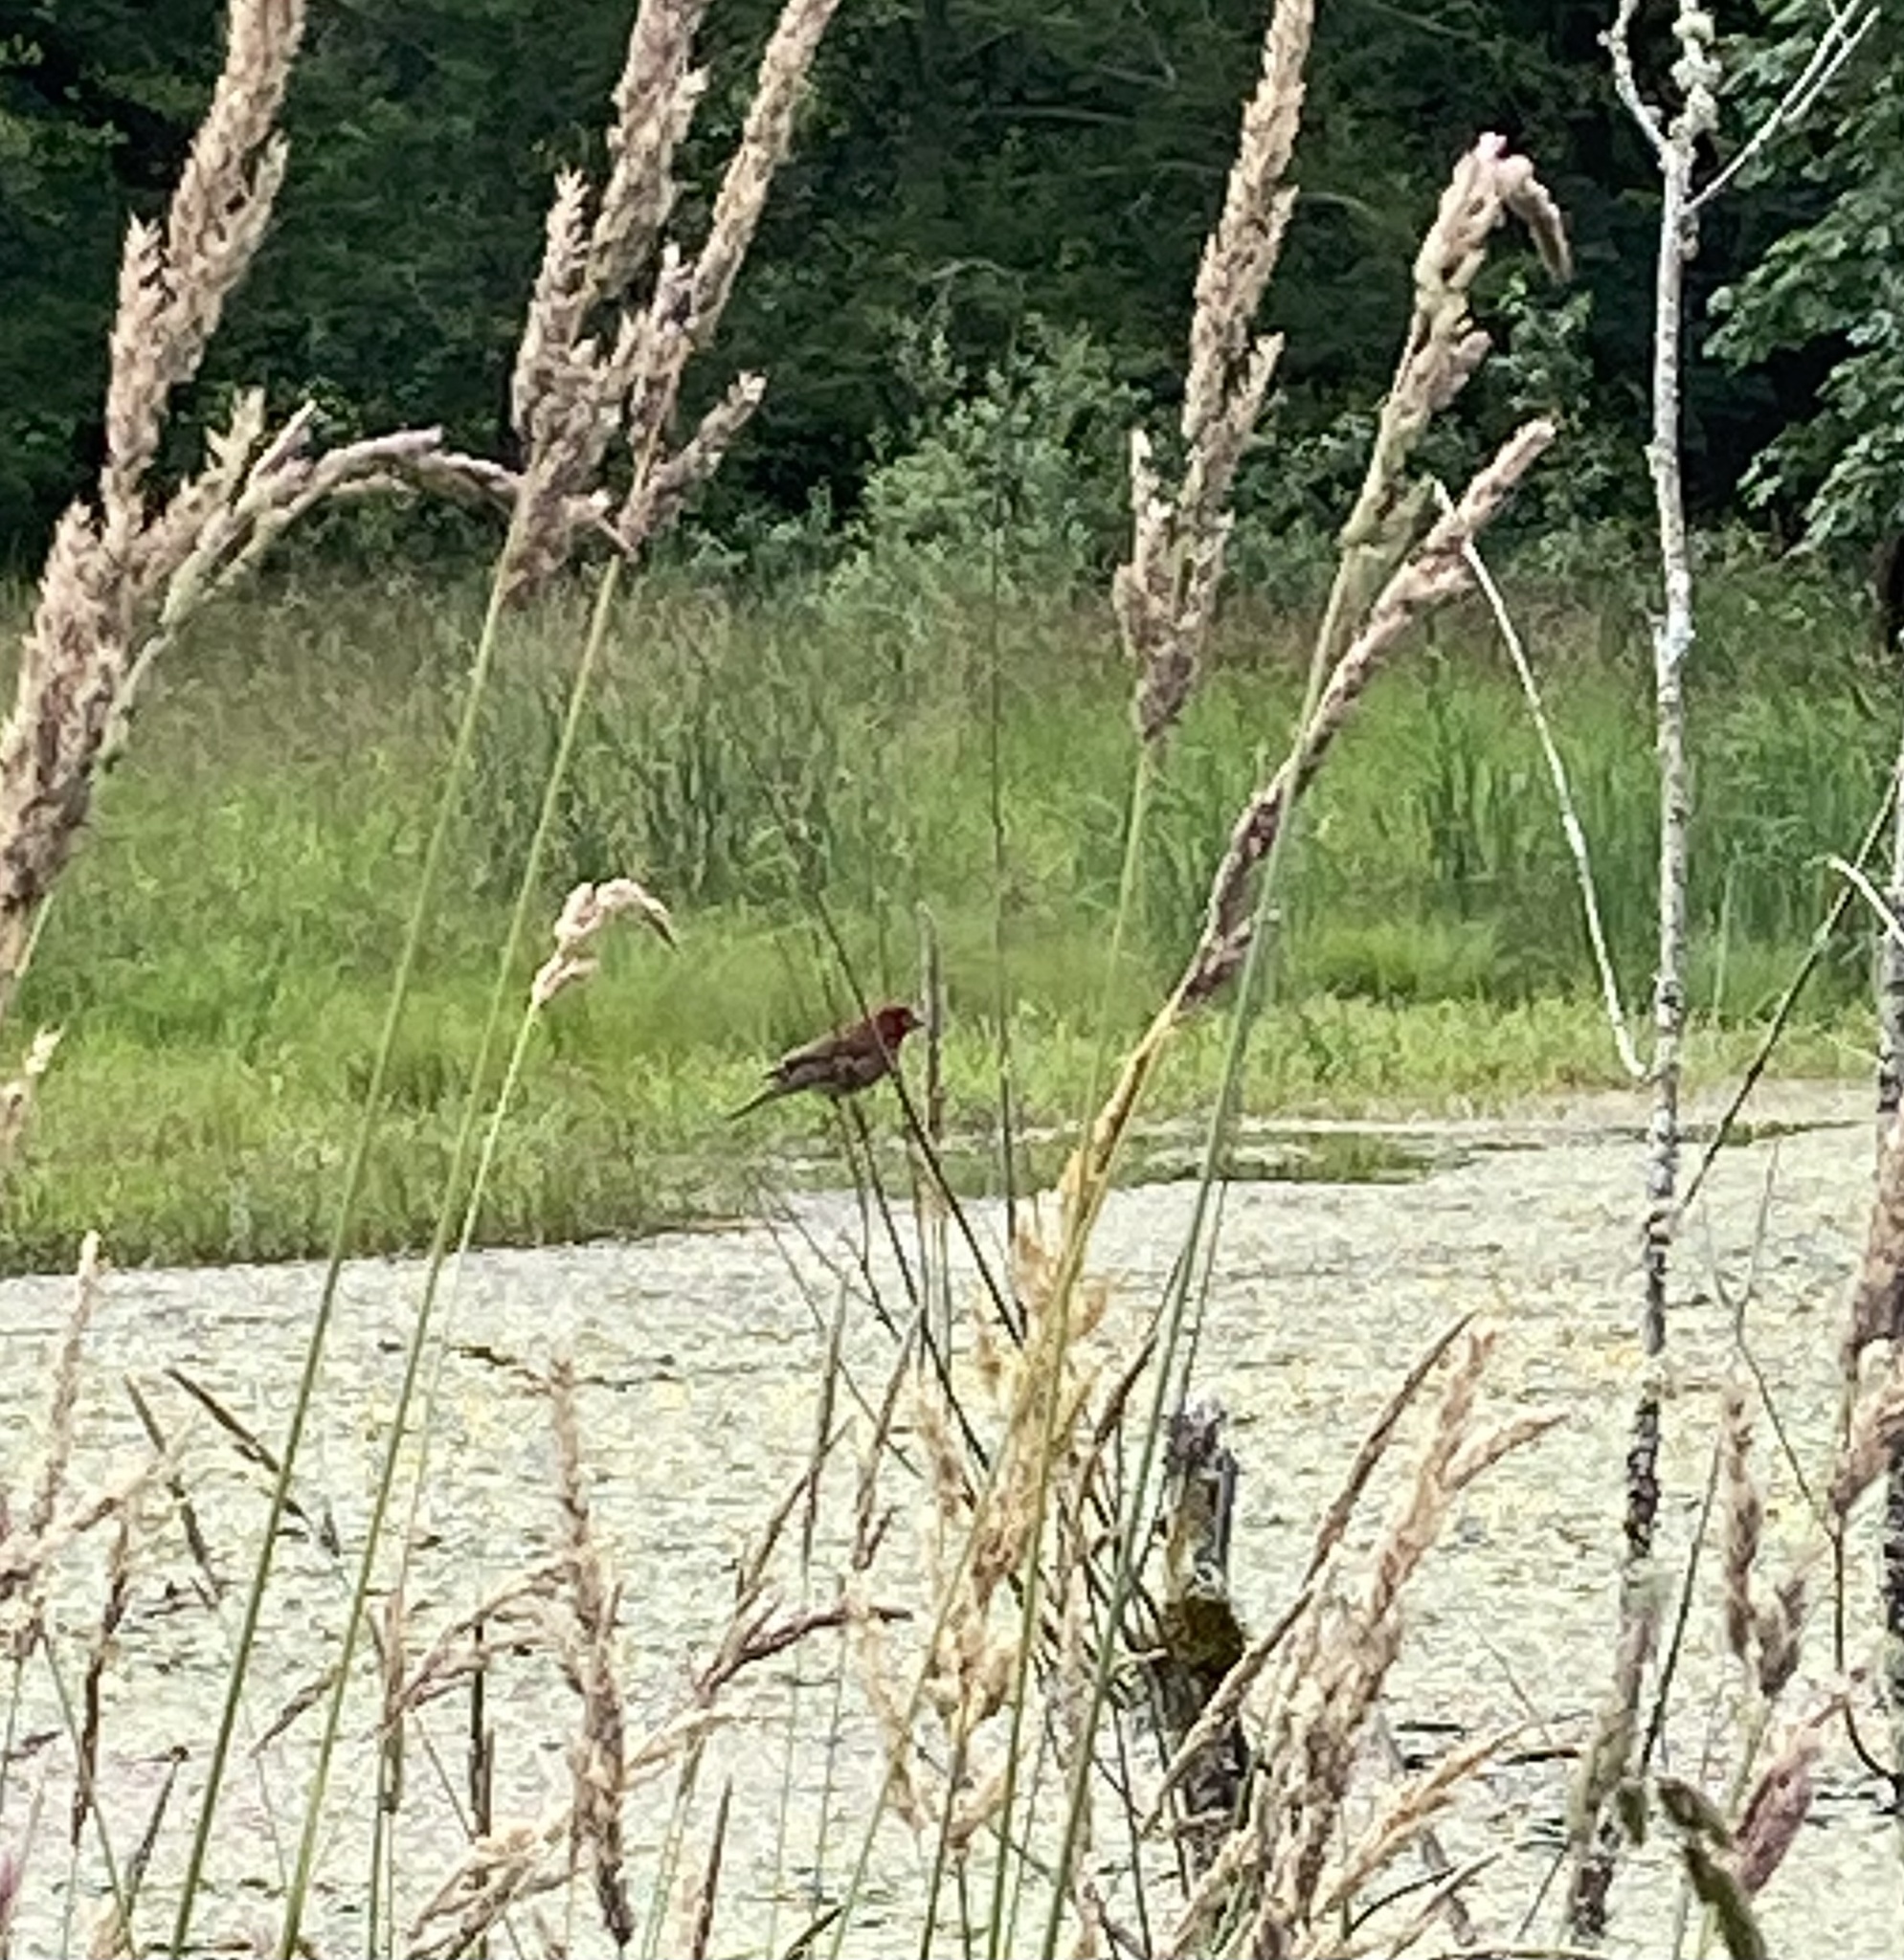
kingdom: Animalia
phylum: Chordata
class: Aves
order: Passeriformes
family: Fringillidae
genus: Haemorhous
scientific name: Haemorhous purpureus
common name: Purple finch
